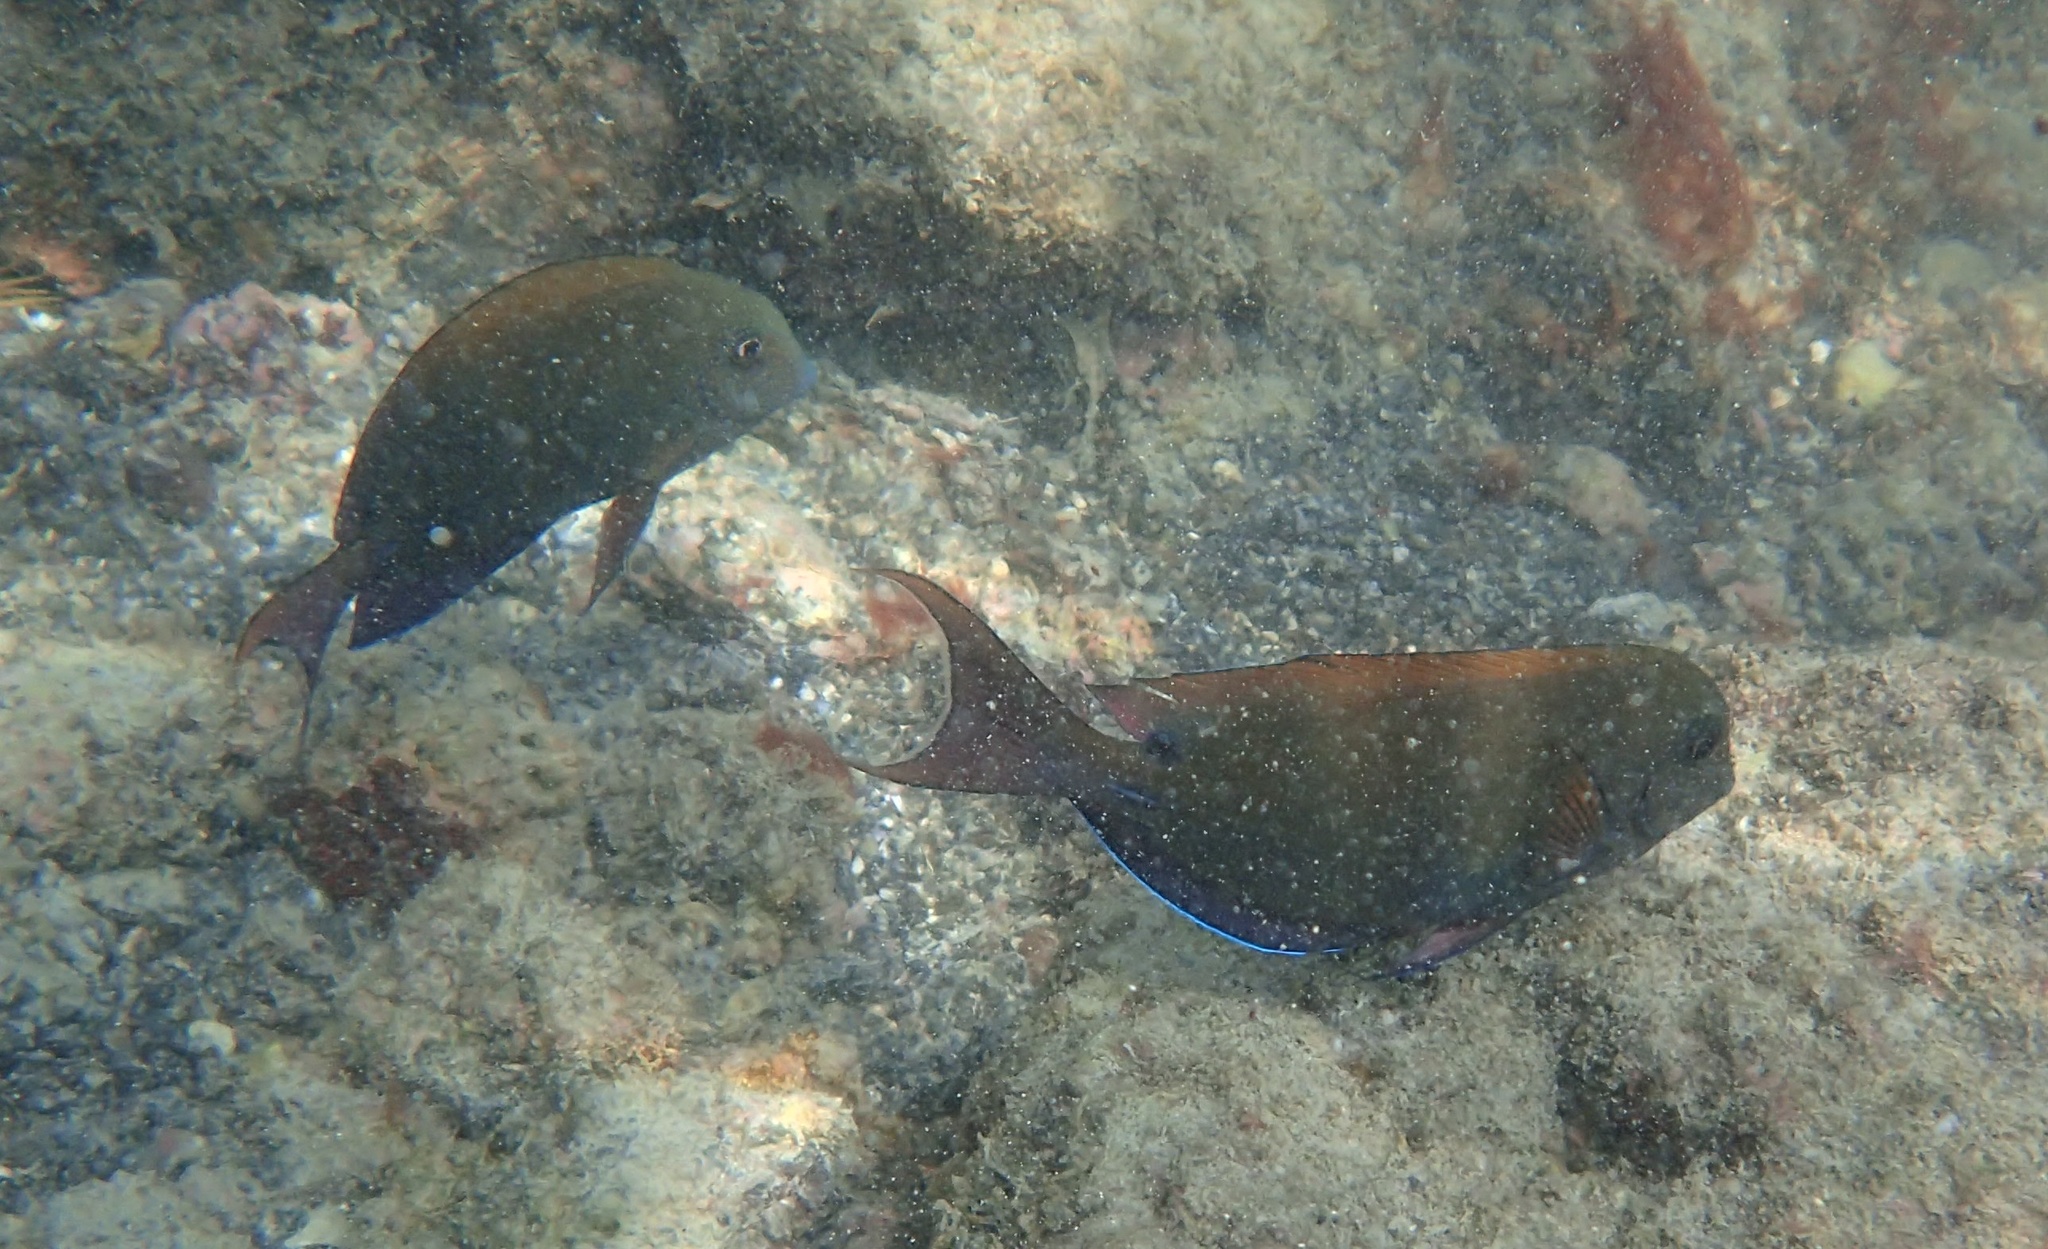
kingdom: Animalia
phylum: Chordata
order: Perciformes
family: Acanthuridae
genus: Acanthurus
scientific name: Acanthurus nigrofuscus
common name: Blackspot surgeonfish
